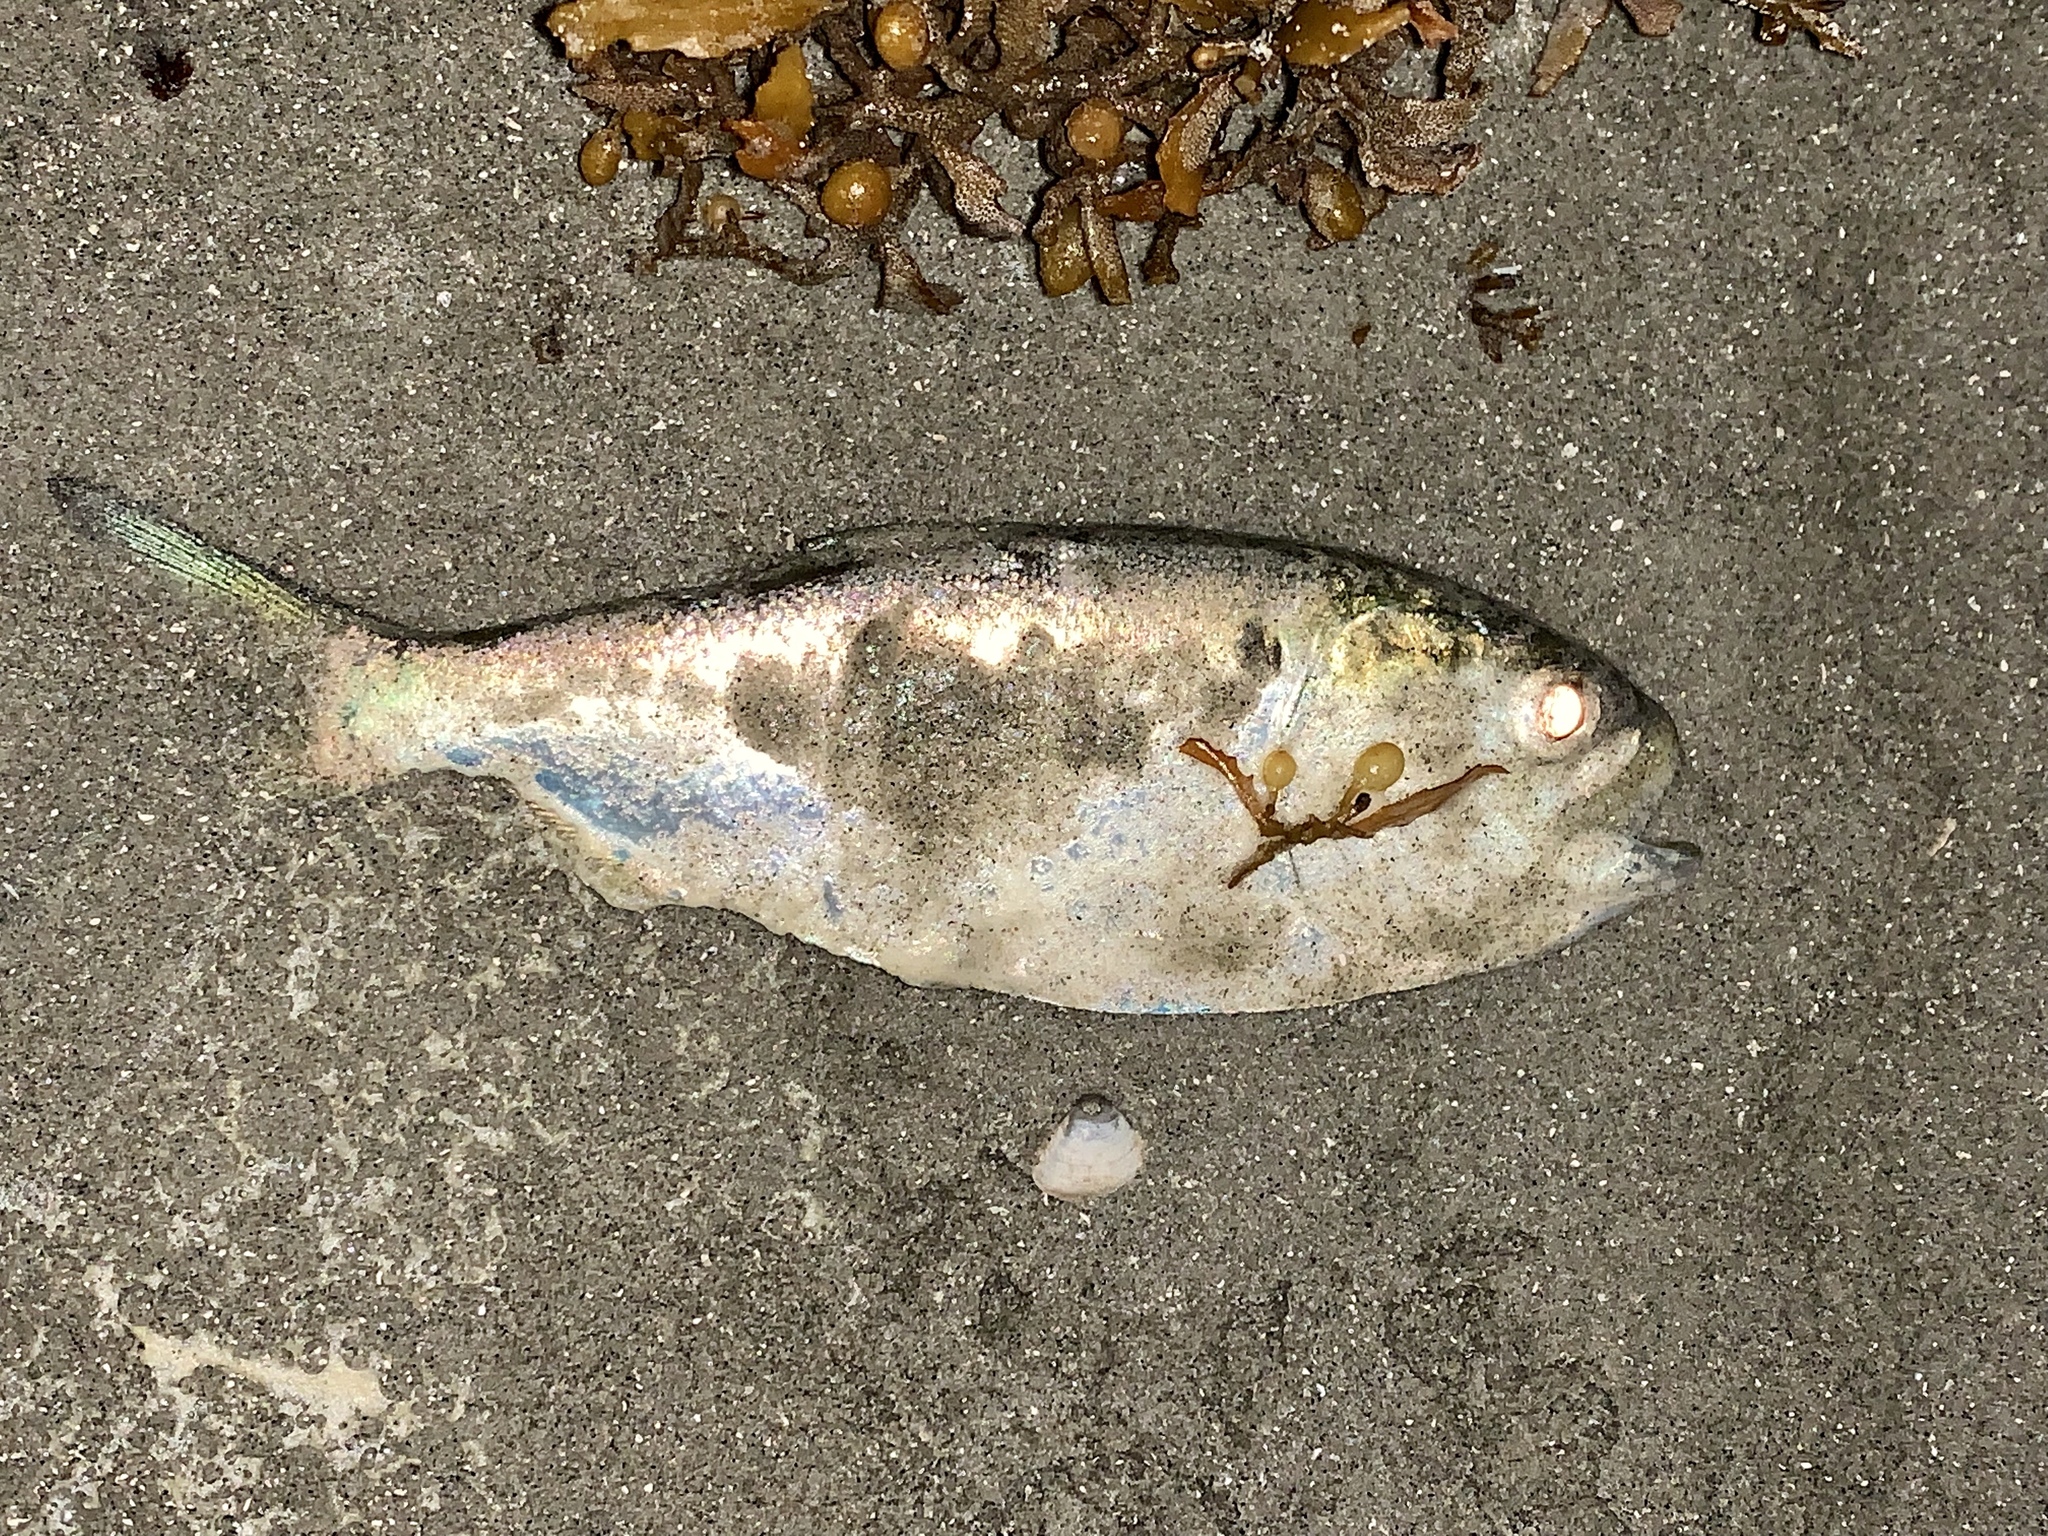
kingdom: Animalia
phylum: Chordata
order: Clupeiformes
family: Clupeidae
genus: Brevoortia
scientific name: Brevoortia patronus
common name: Gulf menhaden
